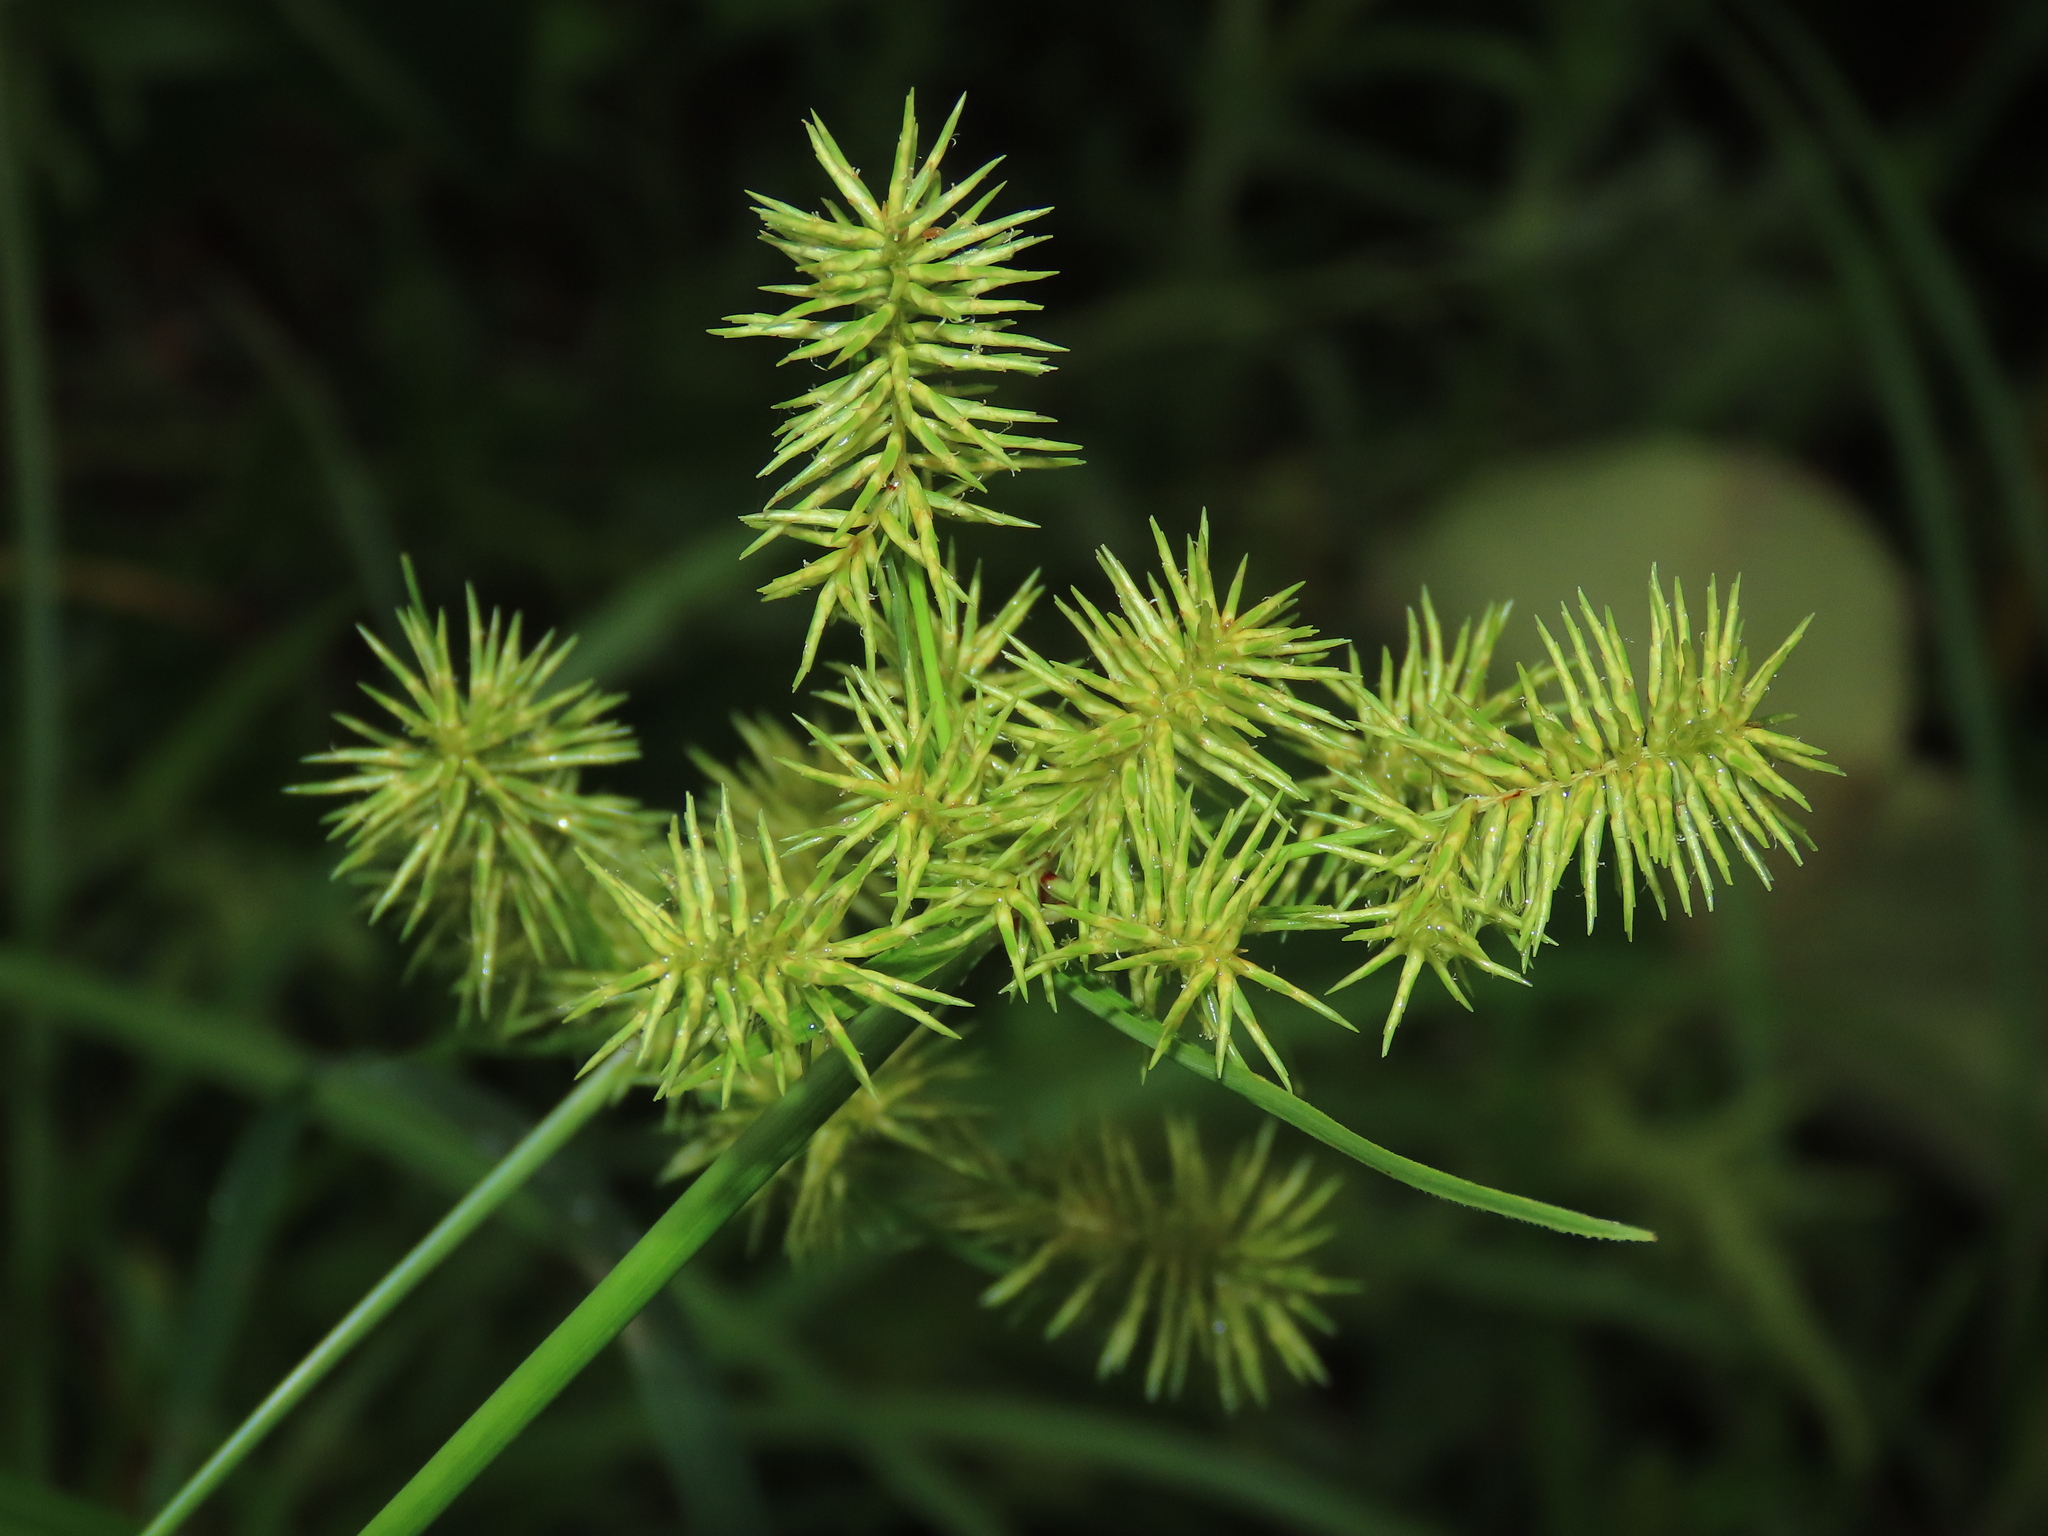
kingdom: Plantae
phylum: Tracheophyta
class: Liliopsida
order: Poales
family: Cyperaceae
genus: Cyperus
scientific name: Cyperus odoratus
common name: Fragrant flatsedge
